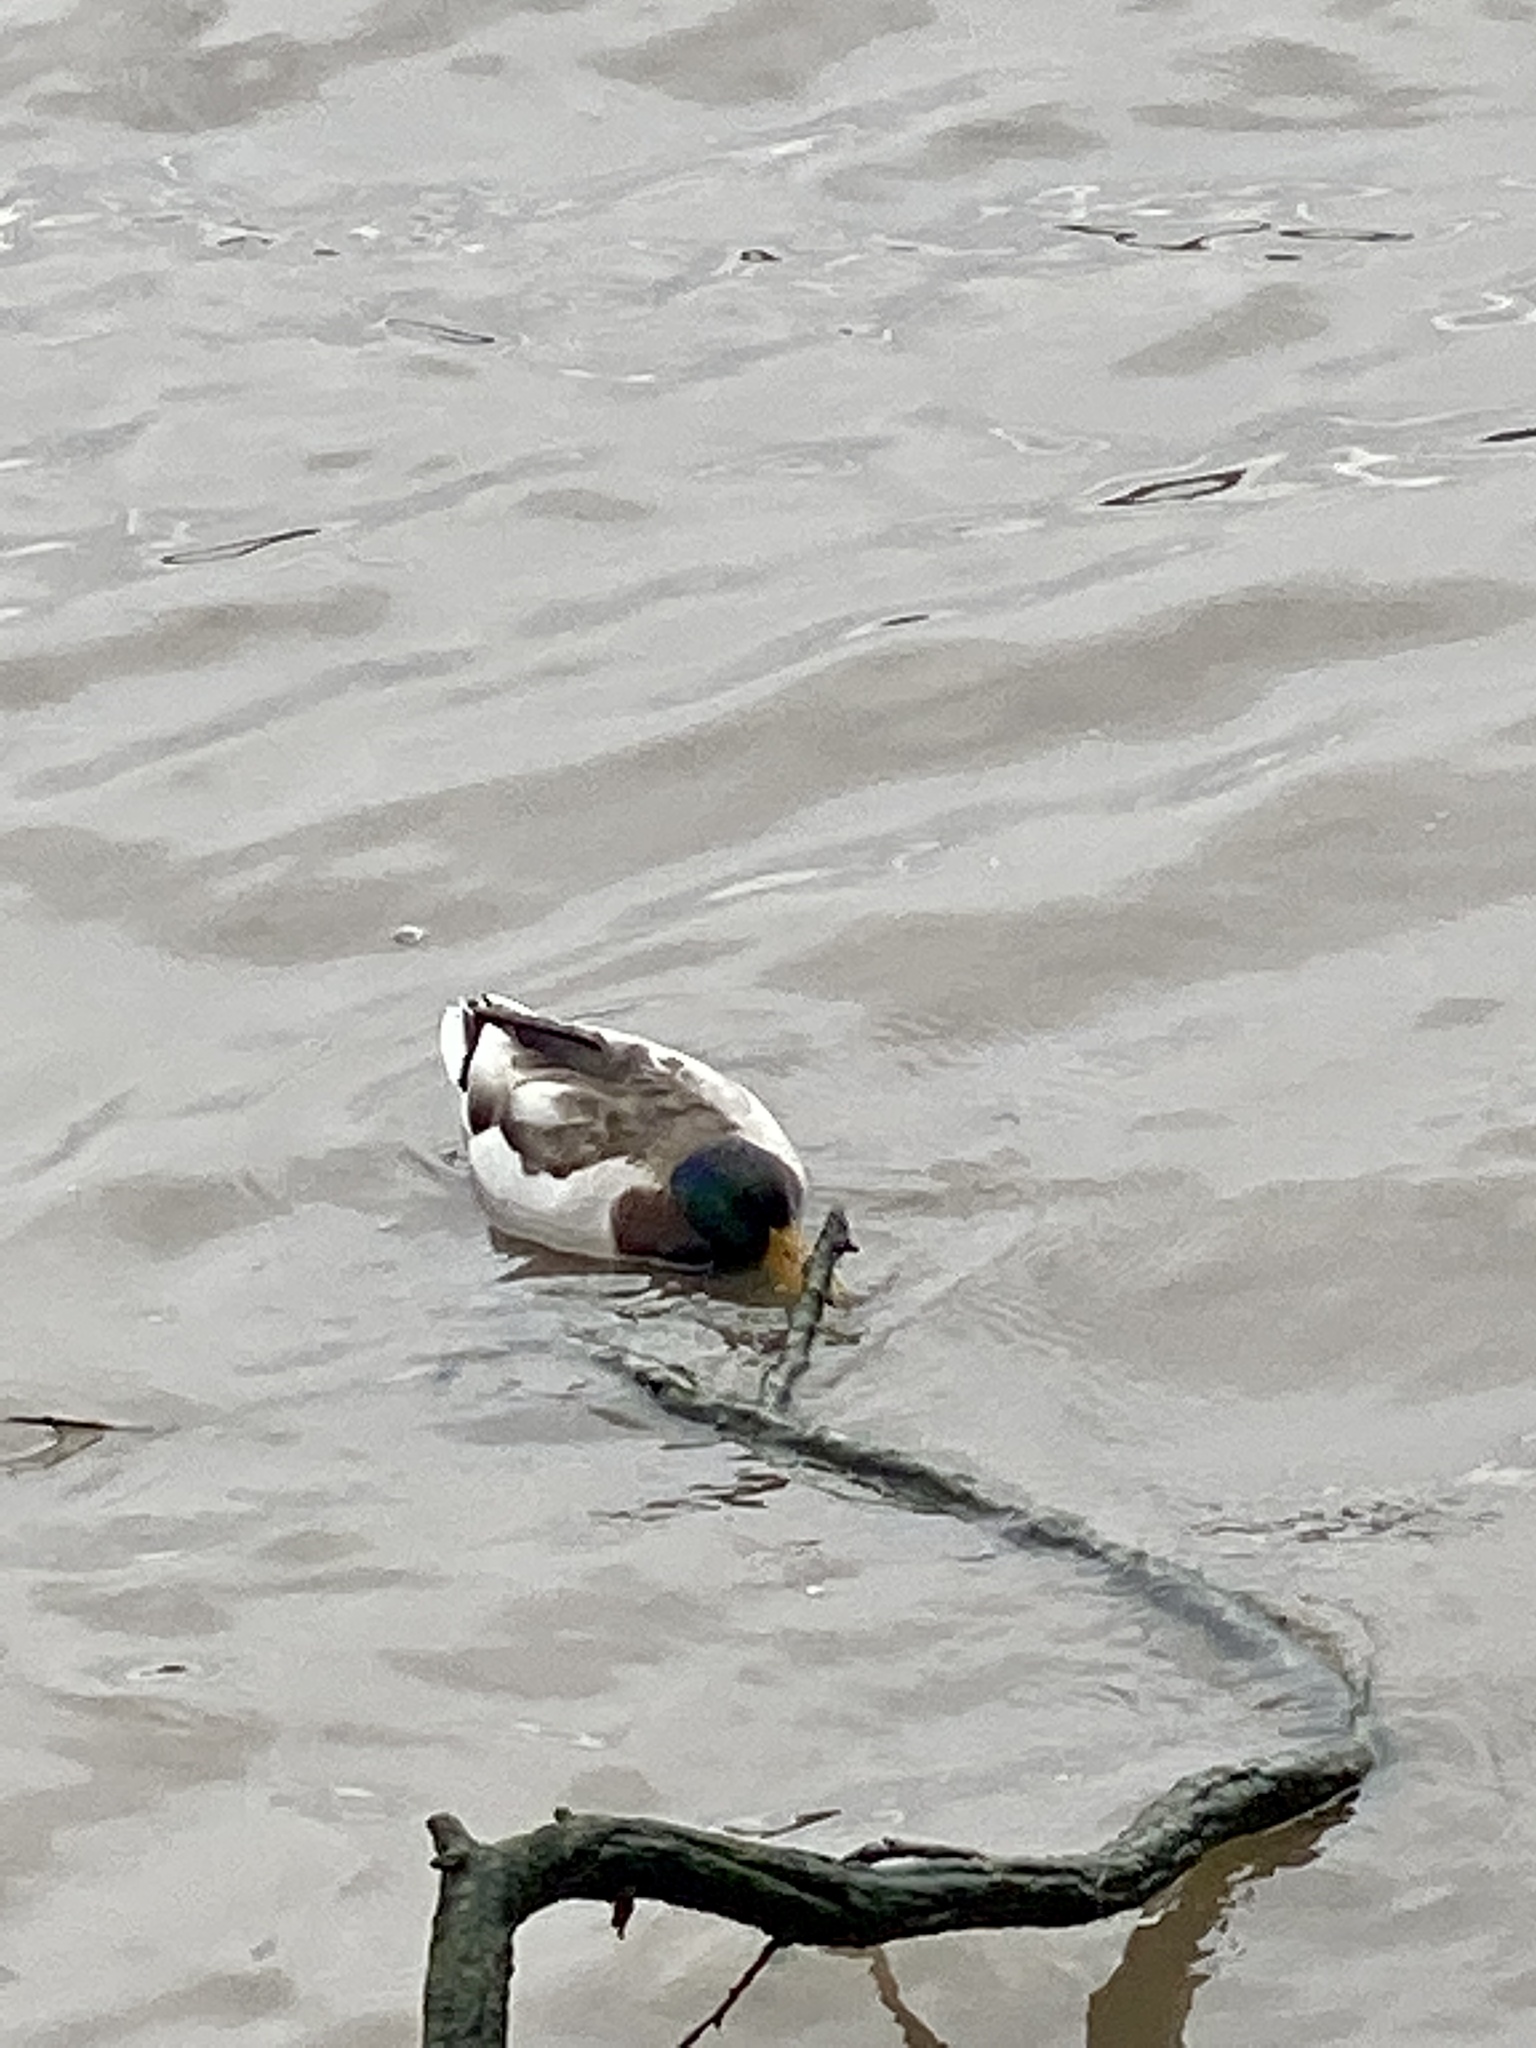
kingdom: Animalia
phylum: Chordata
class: Aves
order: Anseriformes
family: Anatidae
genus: Anas
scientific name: Anas platyrhynchos
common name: Mallard
